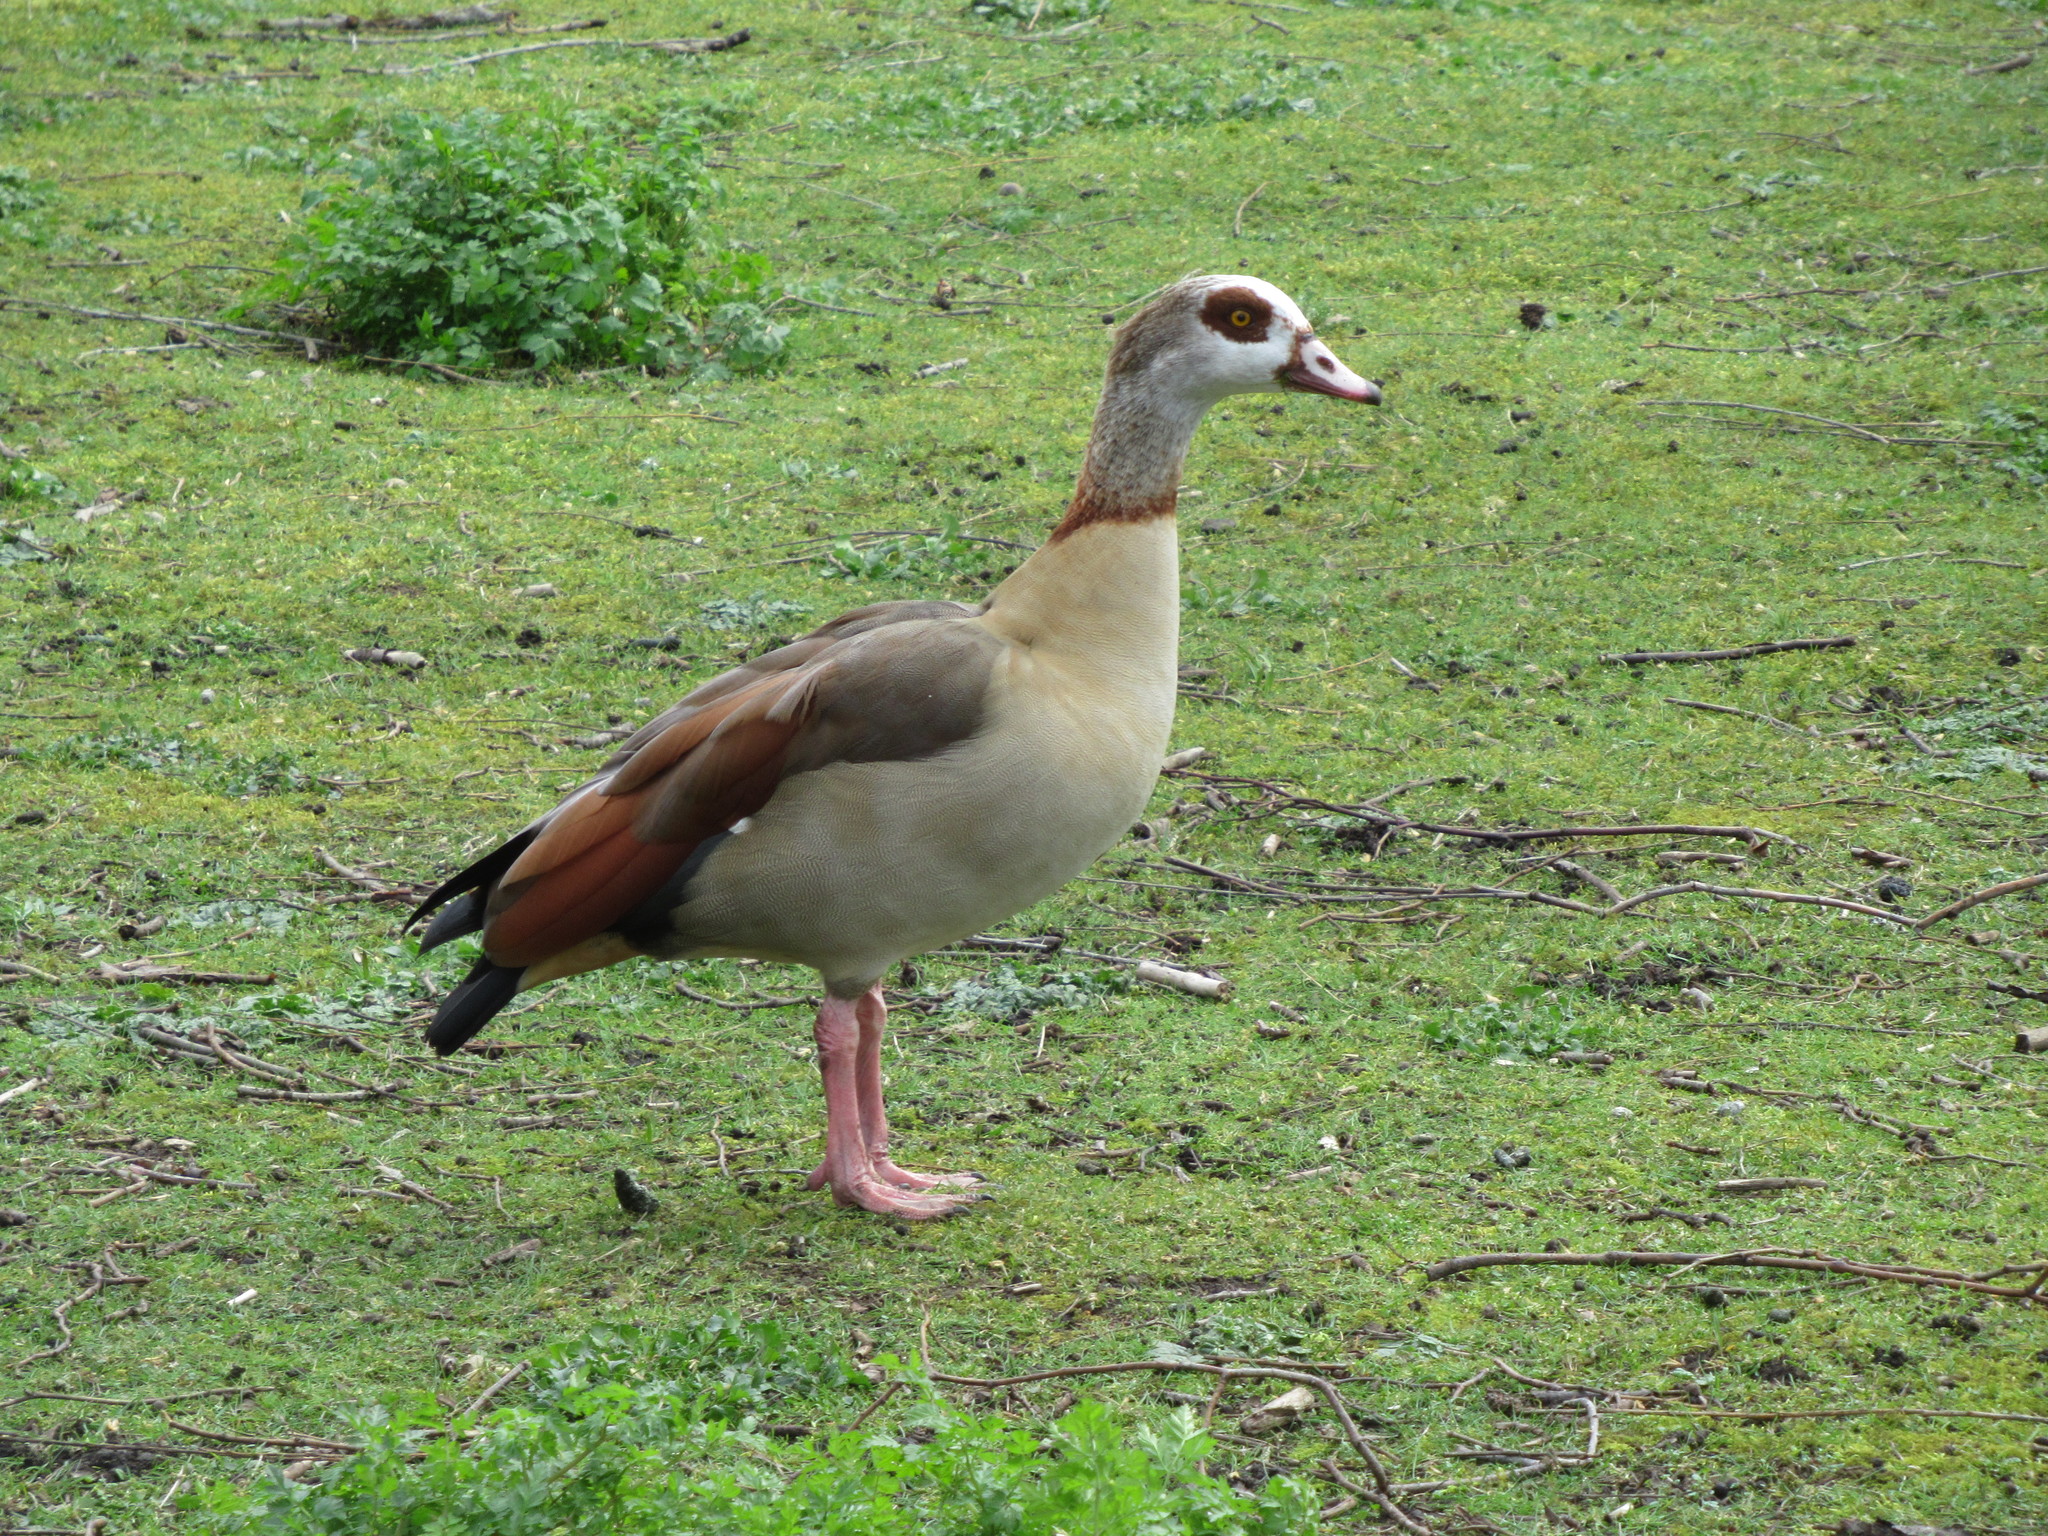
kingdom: Animalia
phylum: Chordata
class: Aves
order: Anseriformes
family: Anatidae
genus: Alopochen
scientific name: Alopochen aegyptiaca
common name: Egyptian goose
